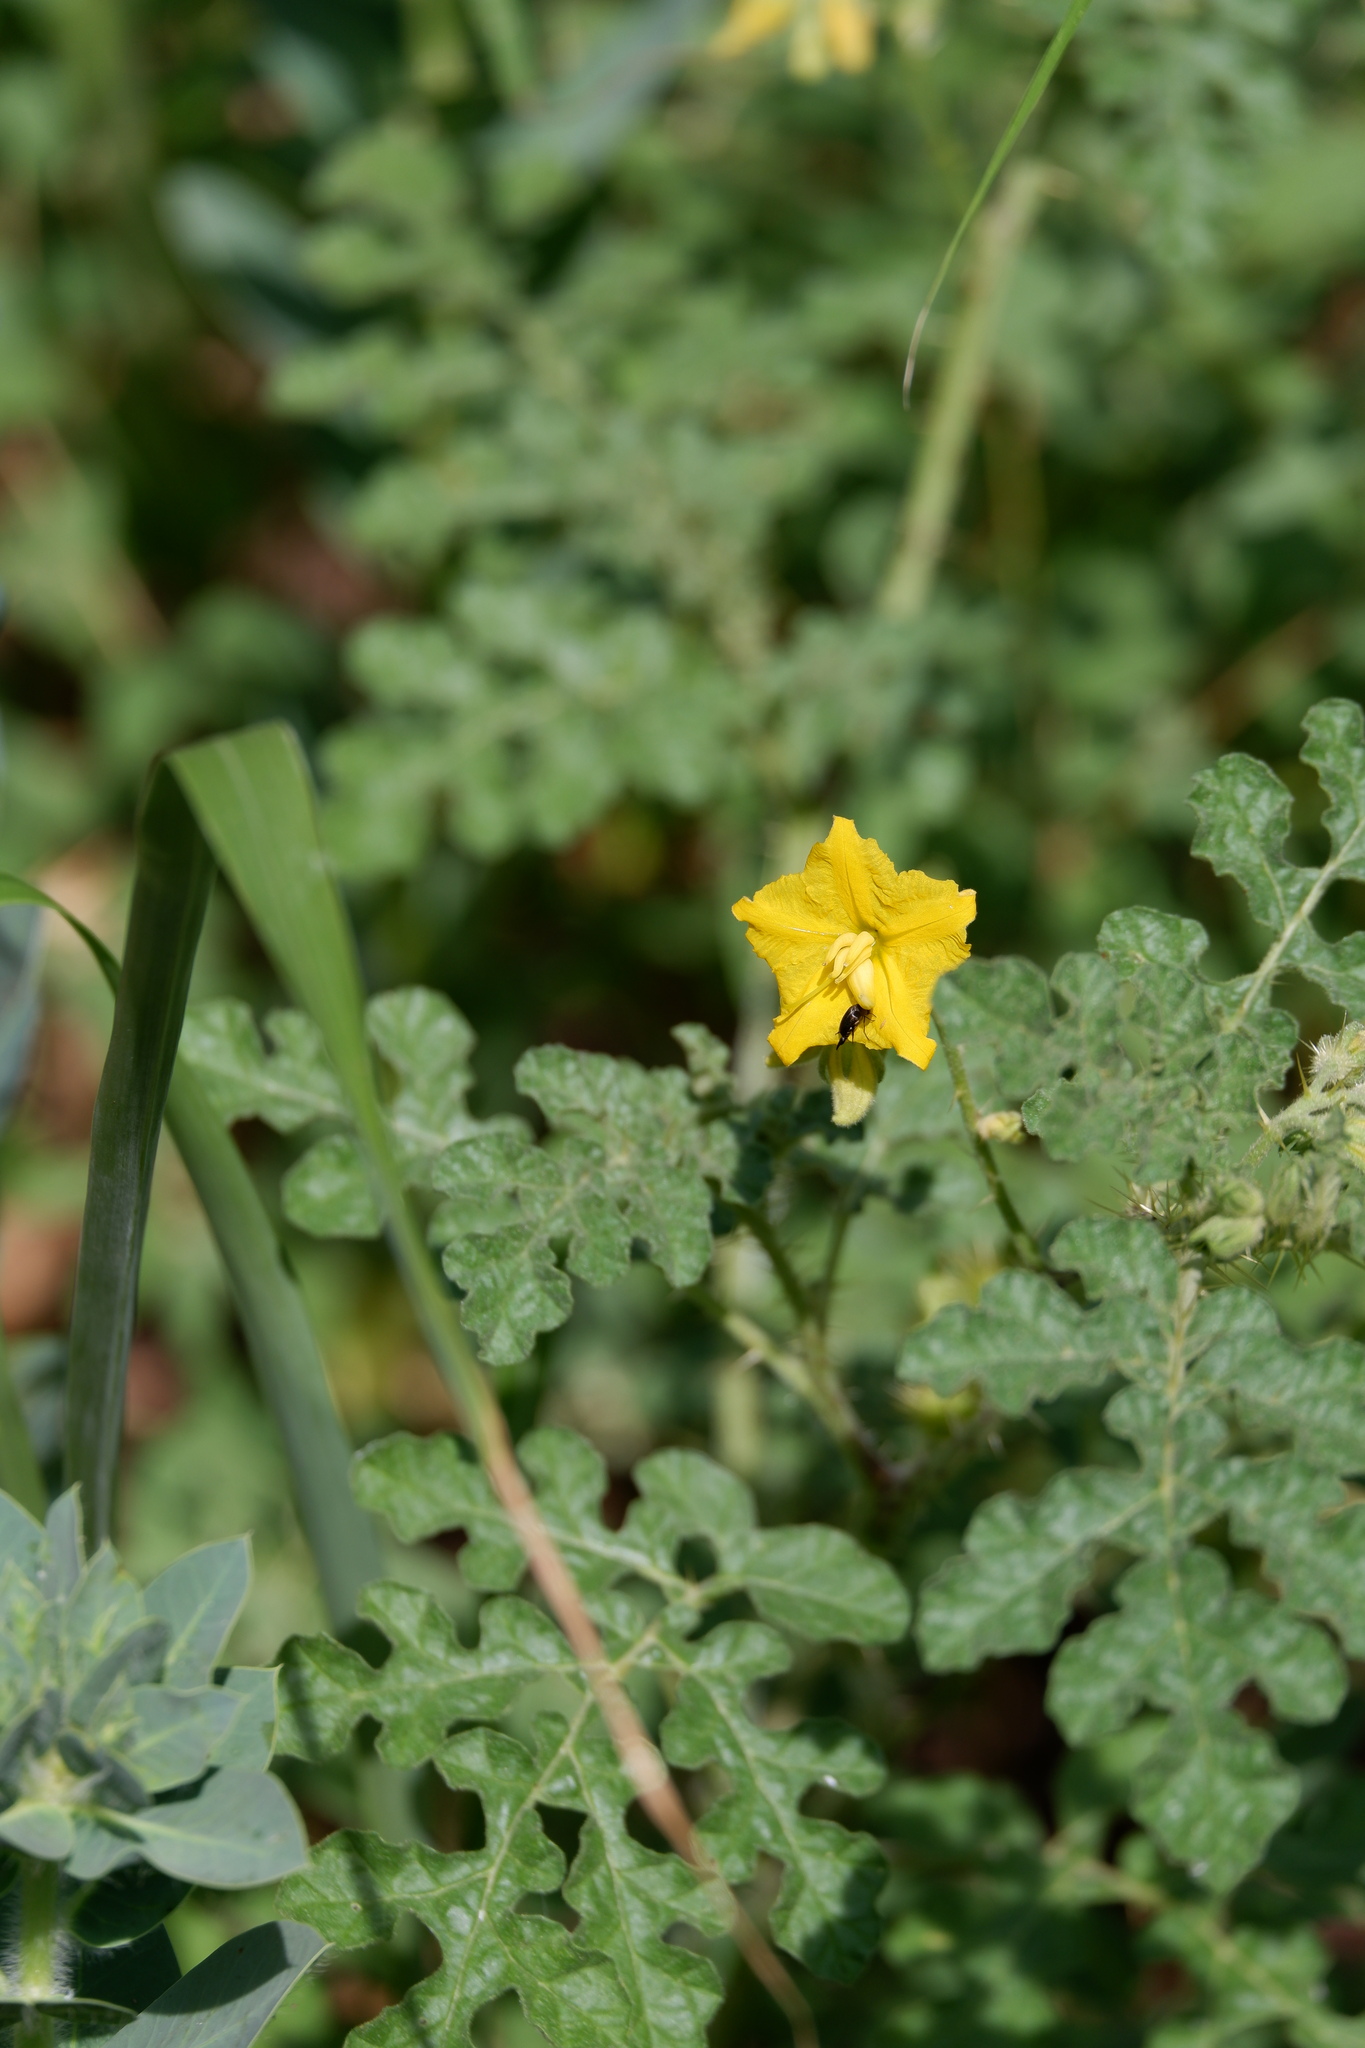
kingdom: Plantae
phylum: Tracheophyta
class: Magnoliopsida
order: Solanales
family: Solanaceae
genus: Solanum
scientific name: Solanum angustifolium
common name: Buffalobur nightshade
